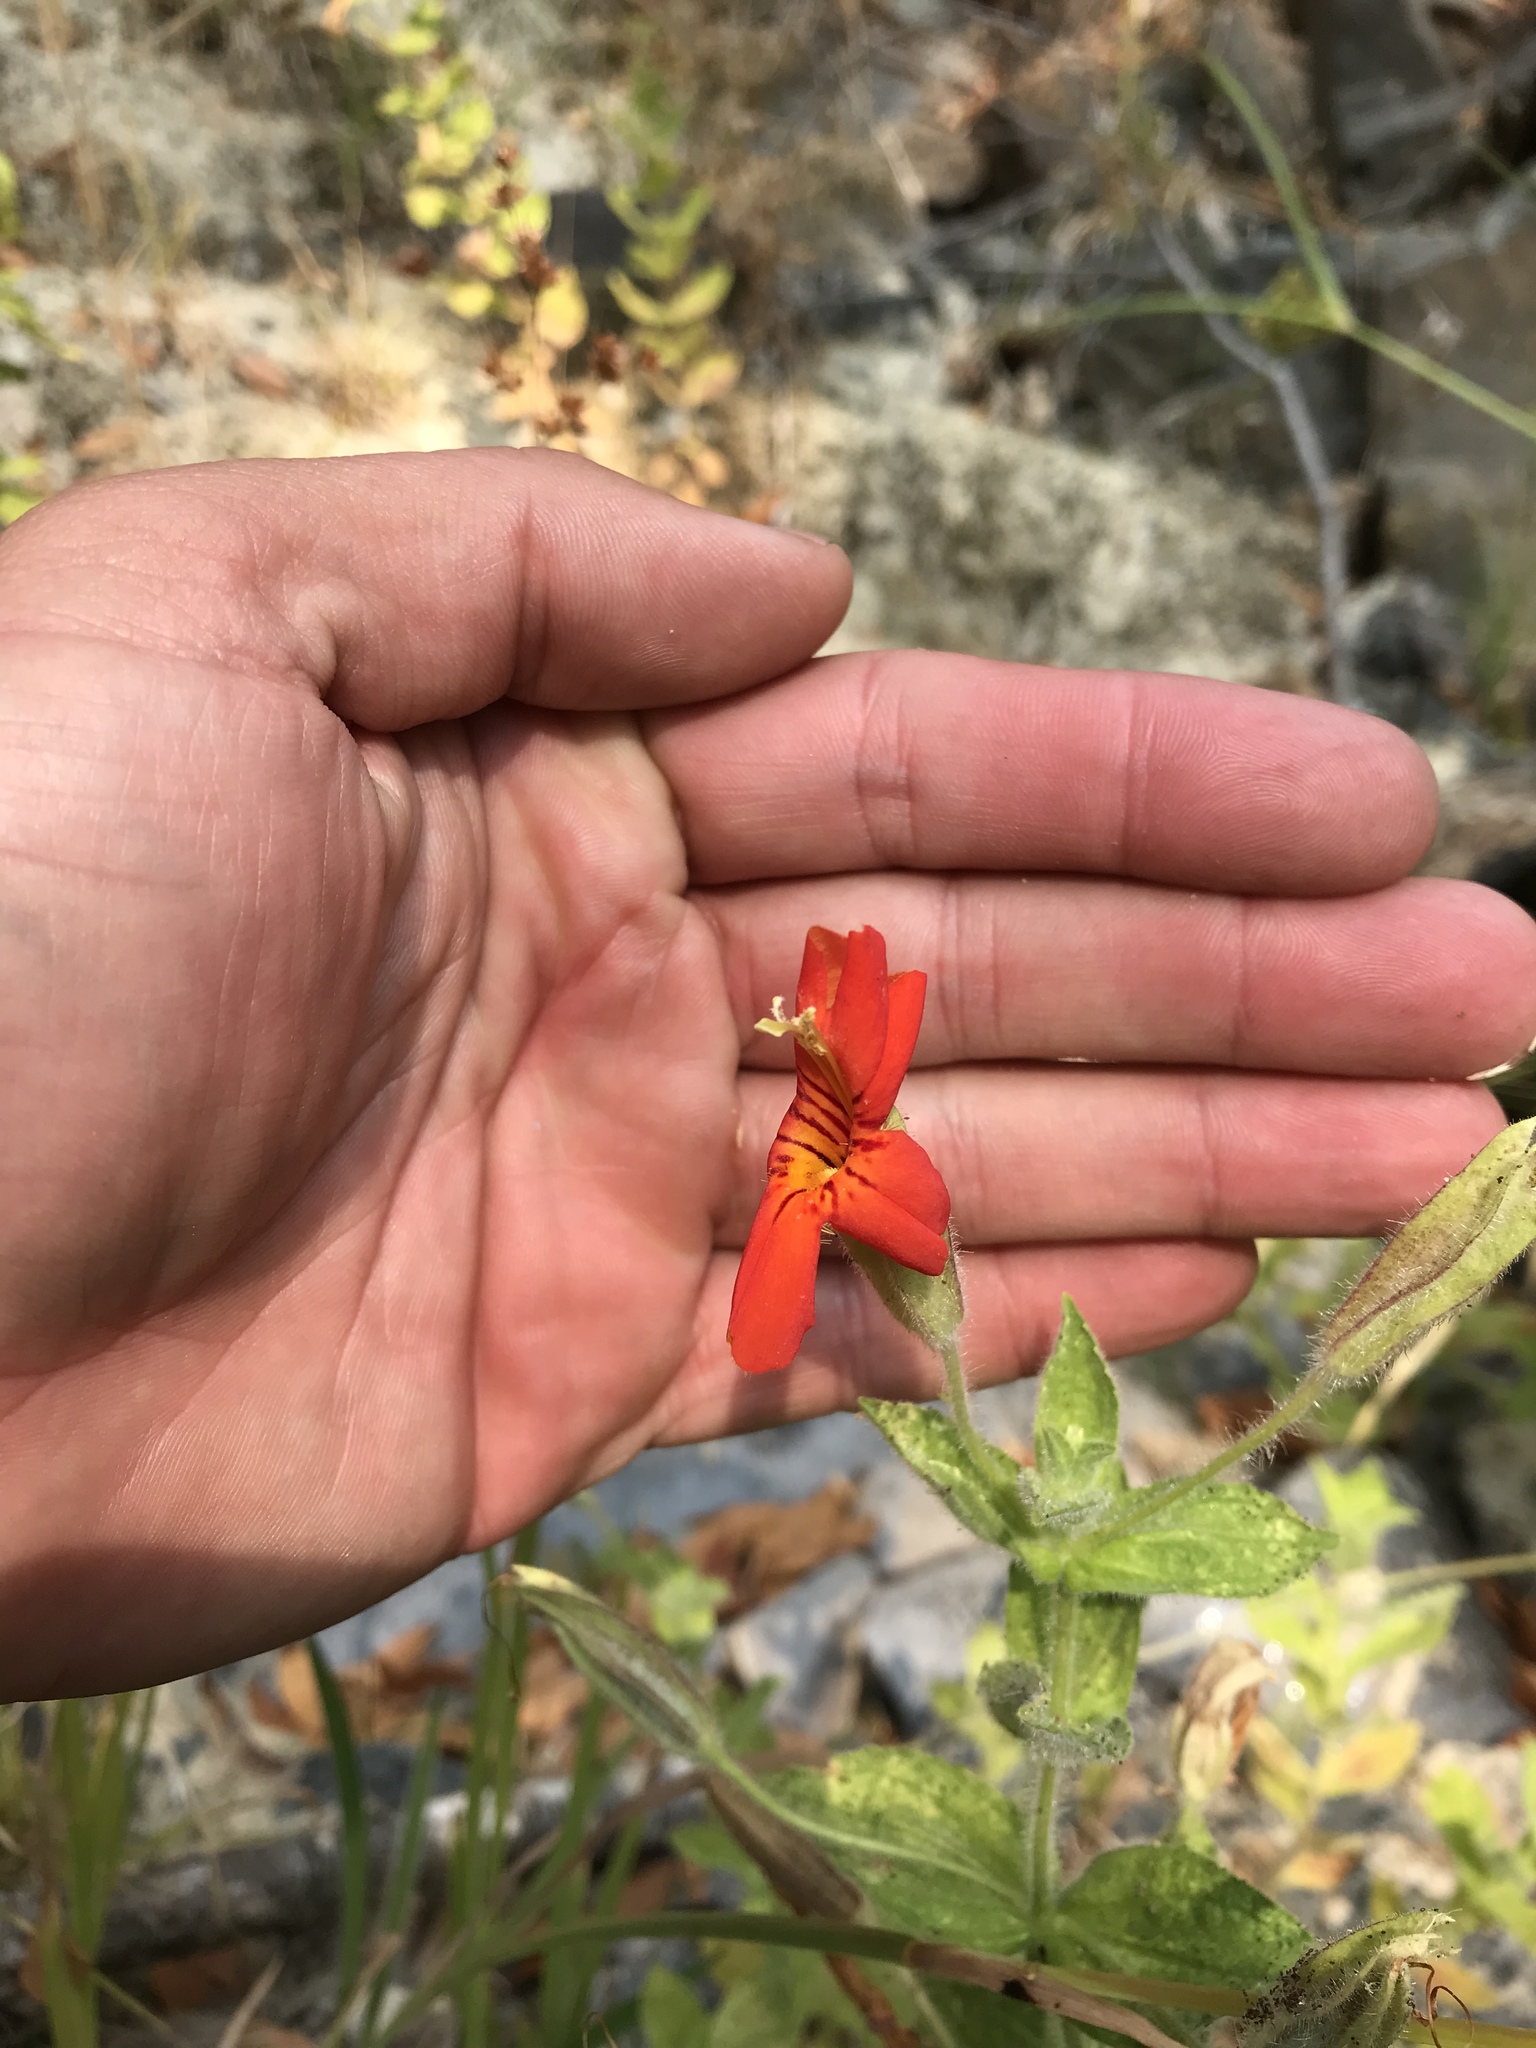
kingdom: Plantae
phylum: Tracheophyta
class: Magnoliopsida
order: Lamiales
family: Phrymaceae
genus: Erythranthe
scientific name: Erythranthe cardinalis
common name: Scarlet monkey-flower
